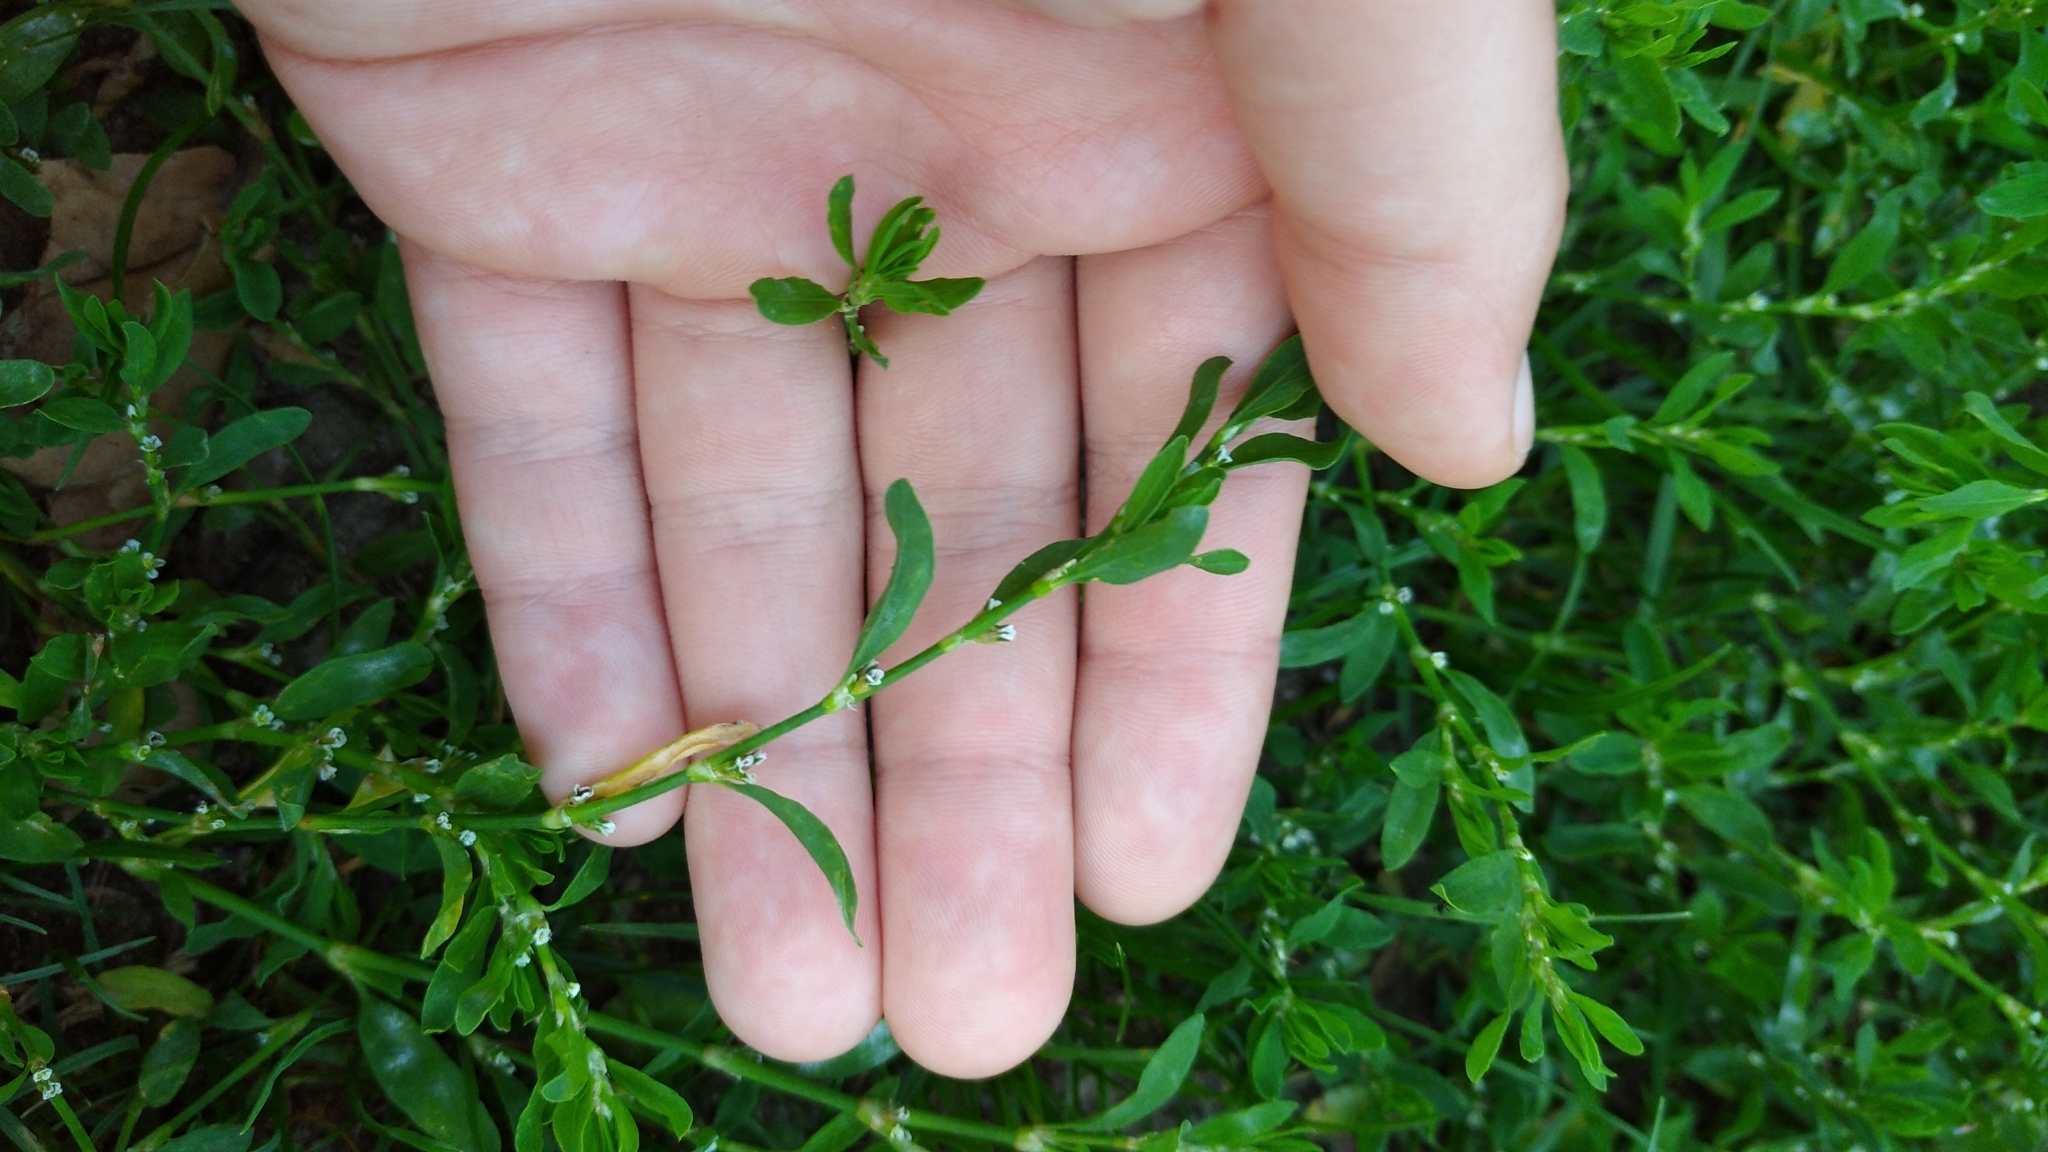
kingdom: Plantae
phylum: Tracheophyta
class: Magnoliopsida
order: Caryophyllales
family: Polygonaceae
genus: Polygonum
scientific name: Polygonum aviculare
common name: Prostrate knotweed
